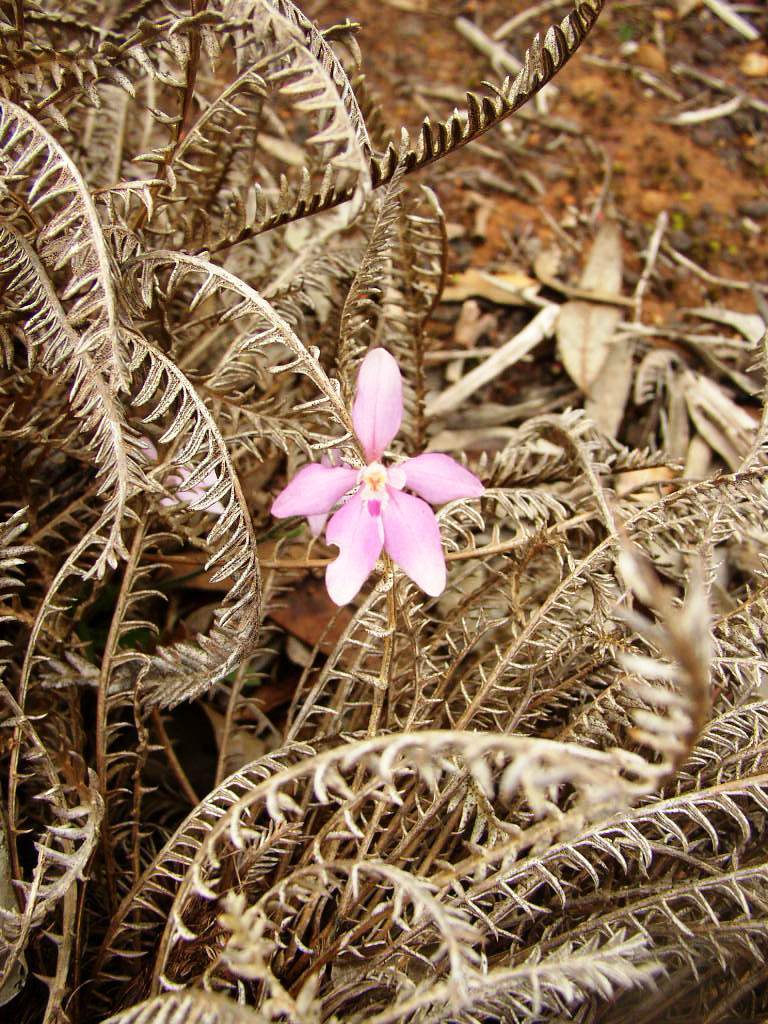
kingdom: Plantae
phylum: Tracheophyta
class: Liliopsida
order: Asparagales
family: Orchidaceae
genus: Caladenia
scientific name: Caladenia reptans
